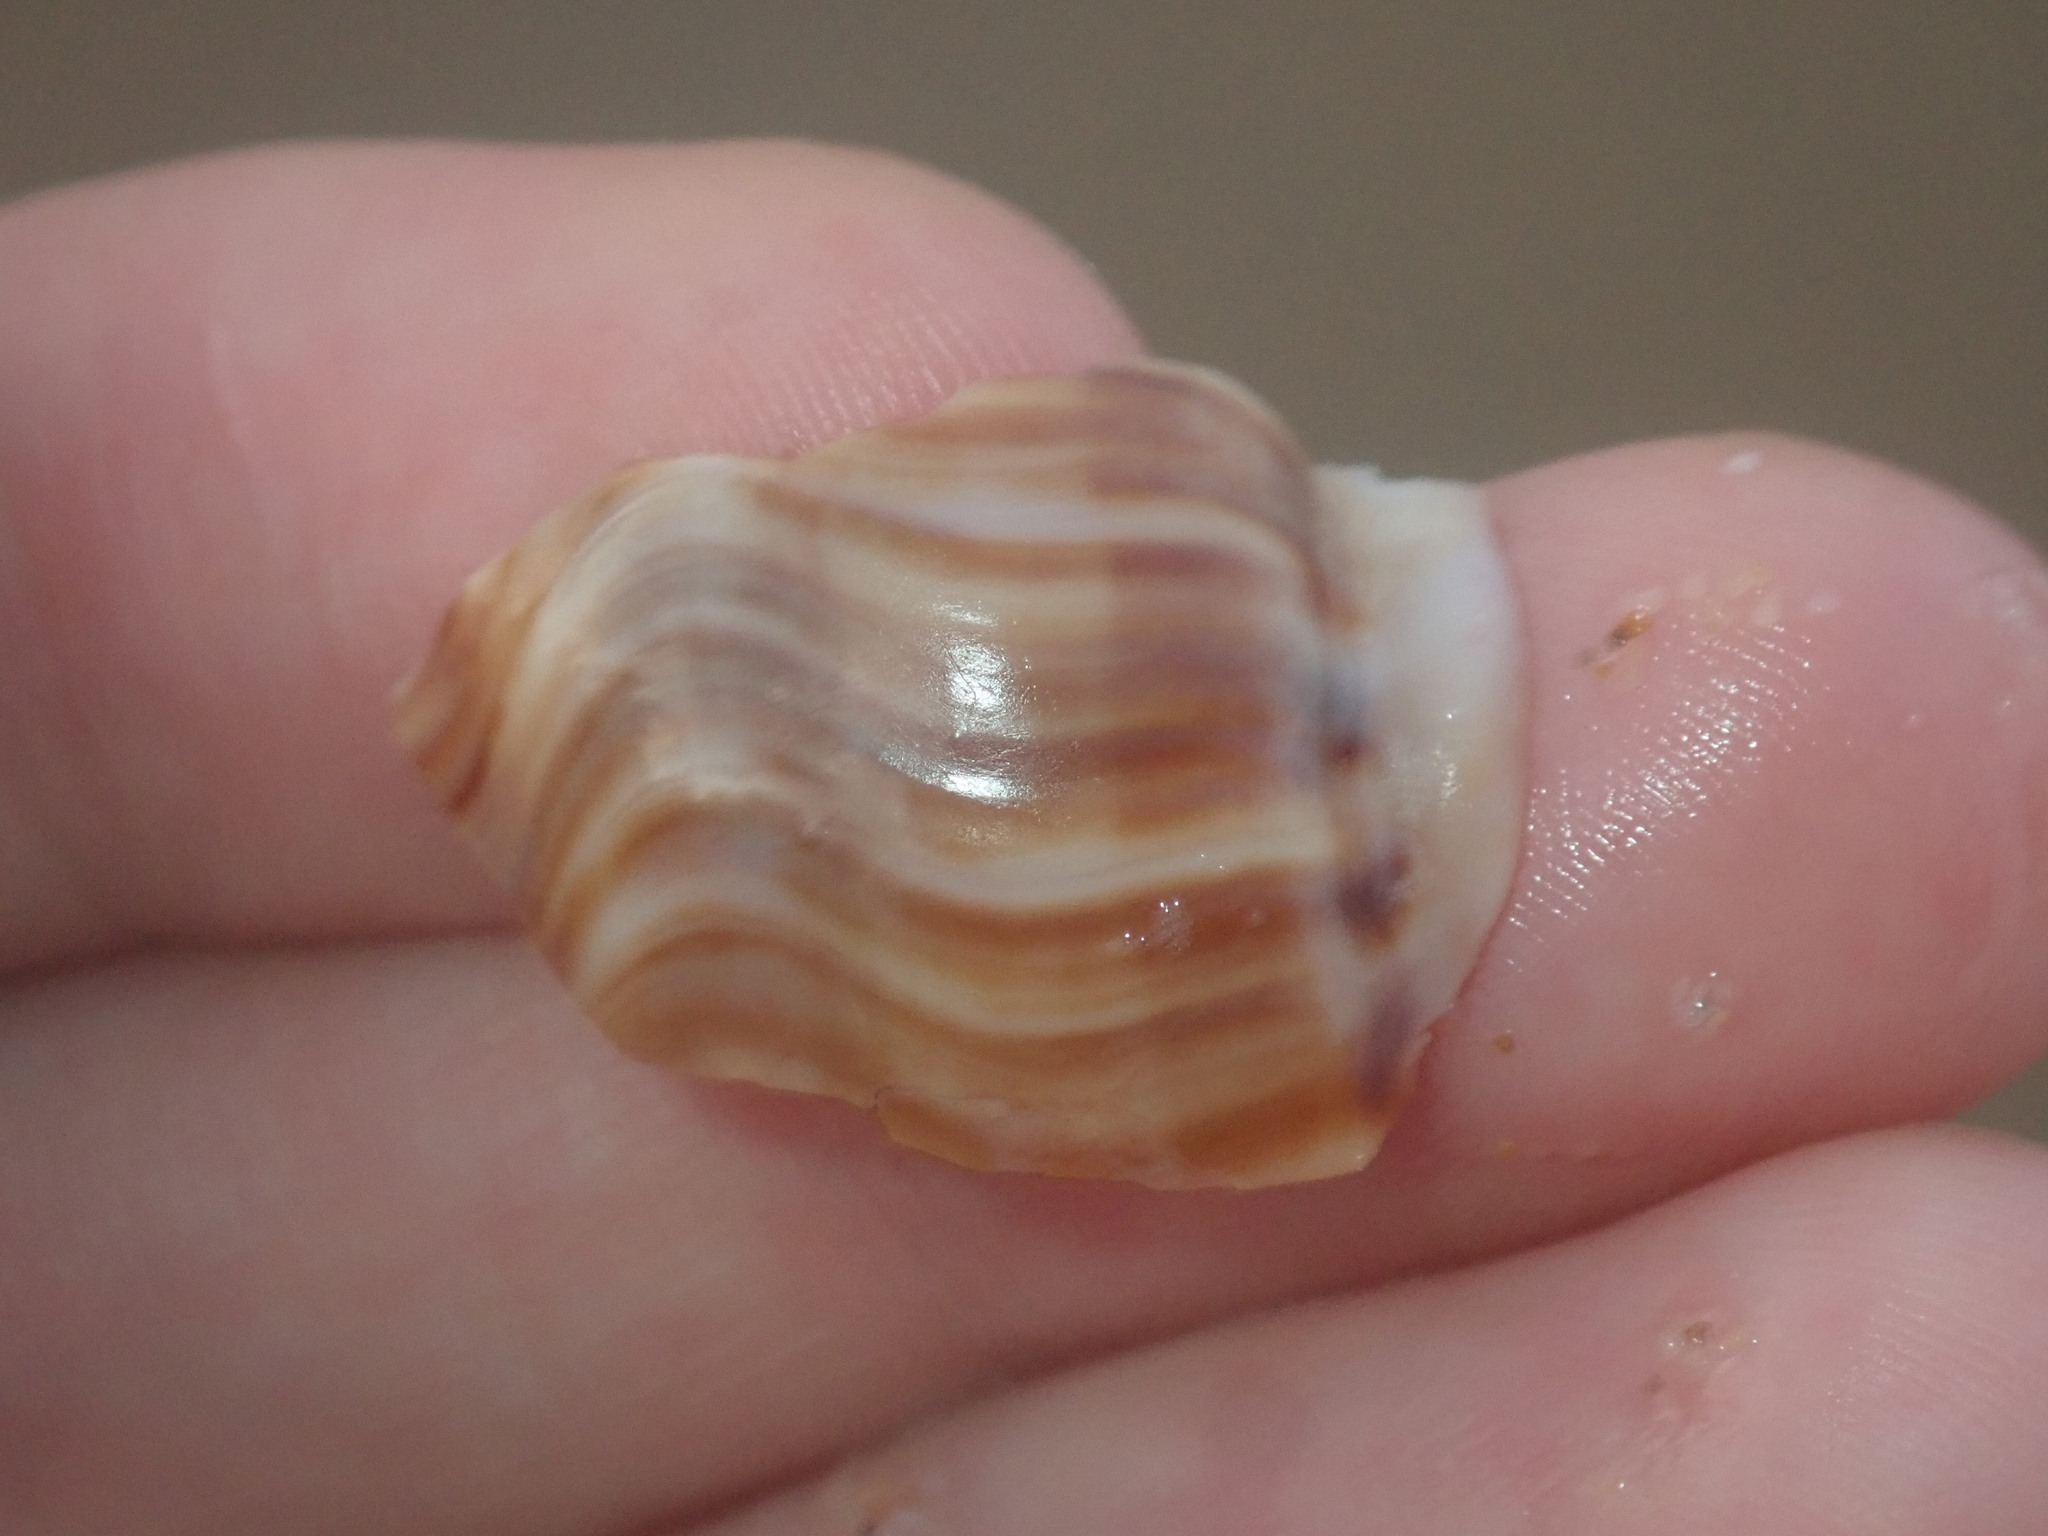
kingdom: Animalia
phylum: Mollusca
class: Gastropoda
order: Littorinimorpha
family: Struthiolariidae
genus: Tylospira
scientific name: Tylospira scutulata
